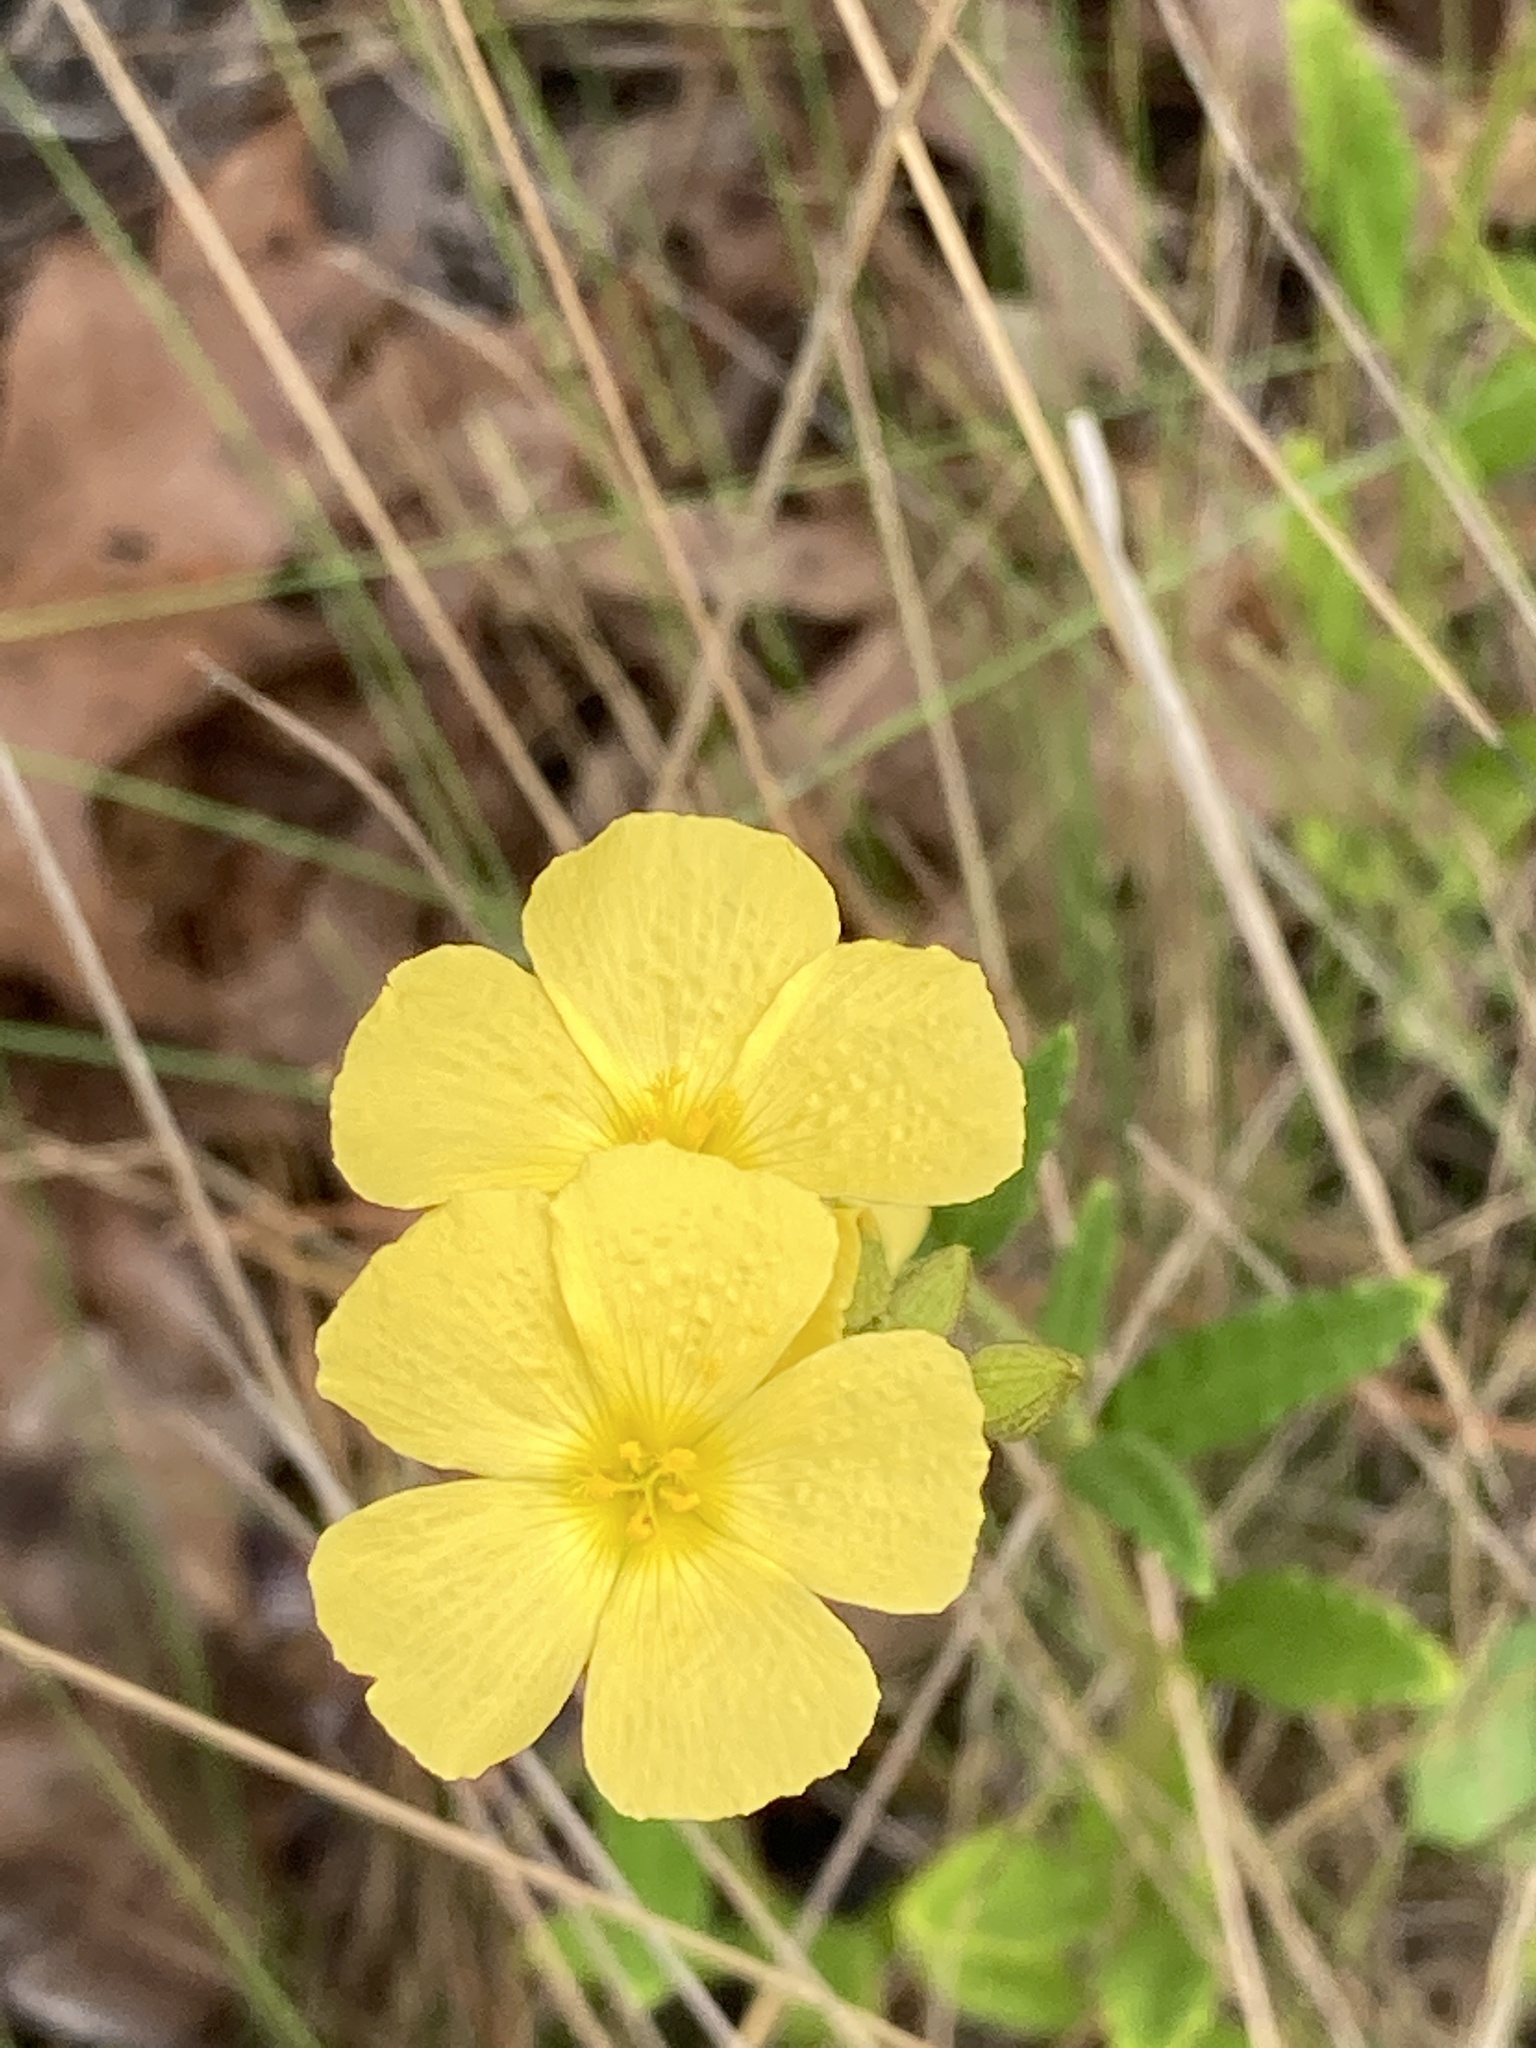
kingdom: Plantae
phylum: Tracheophyta
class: Magnoliopsida
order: Malpighiales
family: Turneraceae
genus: Piriqueta
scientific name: Piriqueta cistoides
